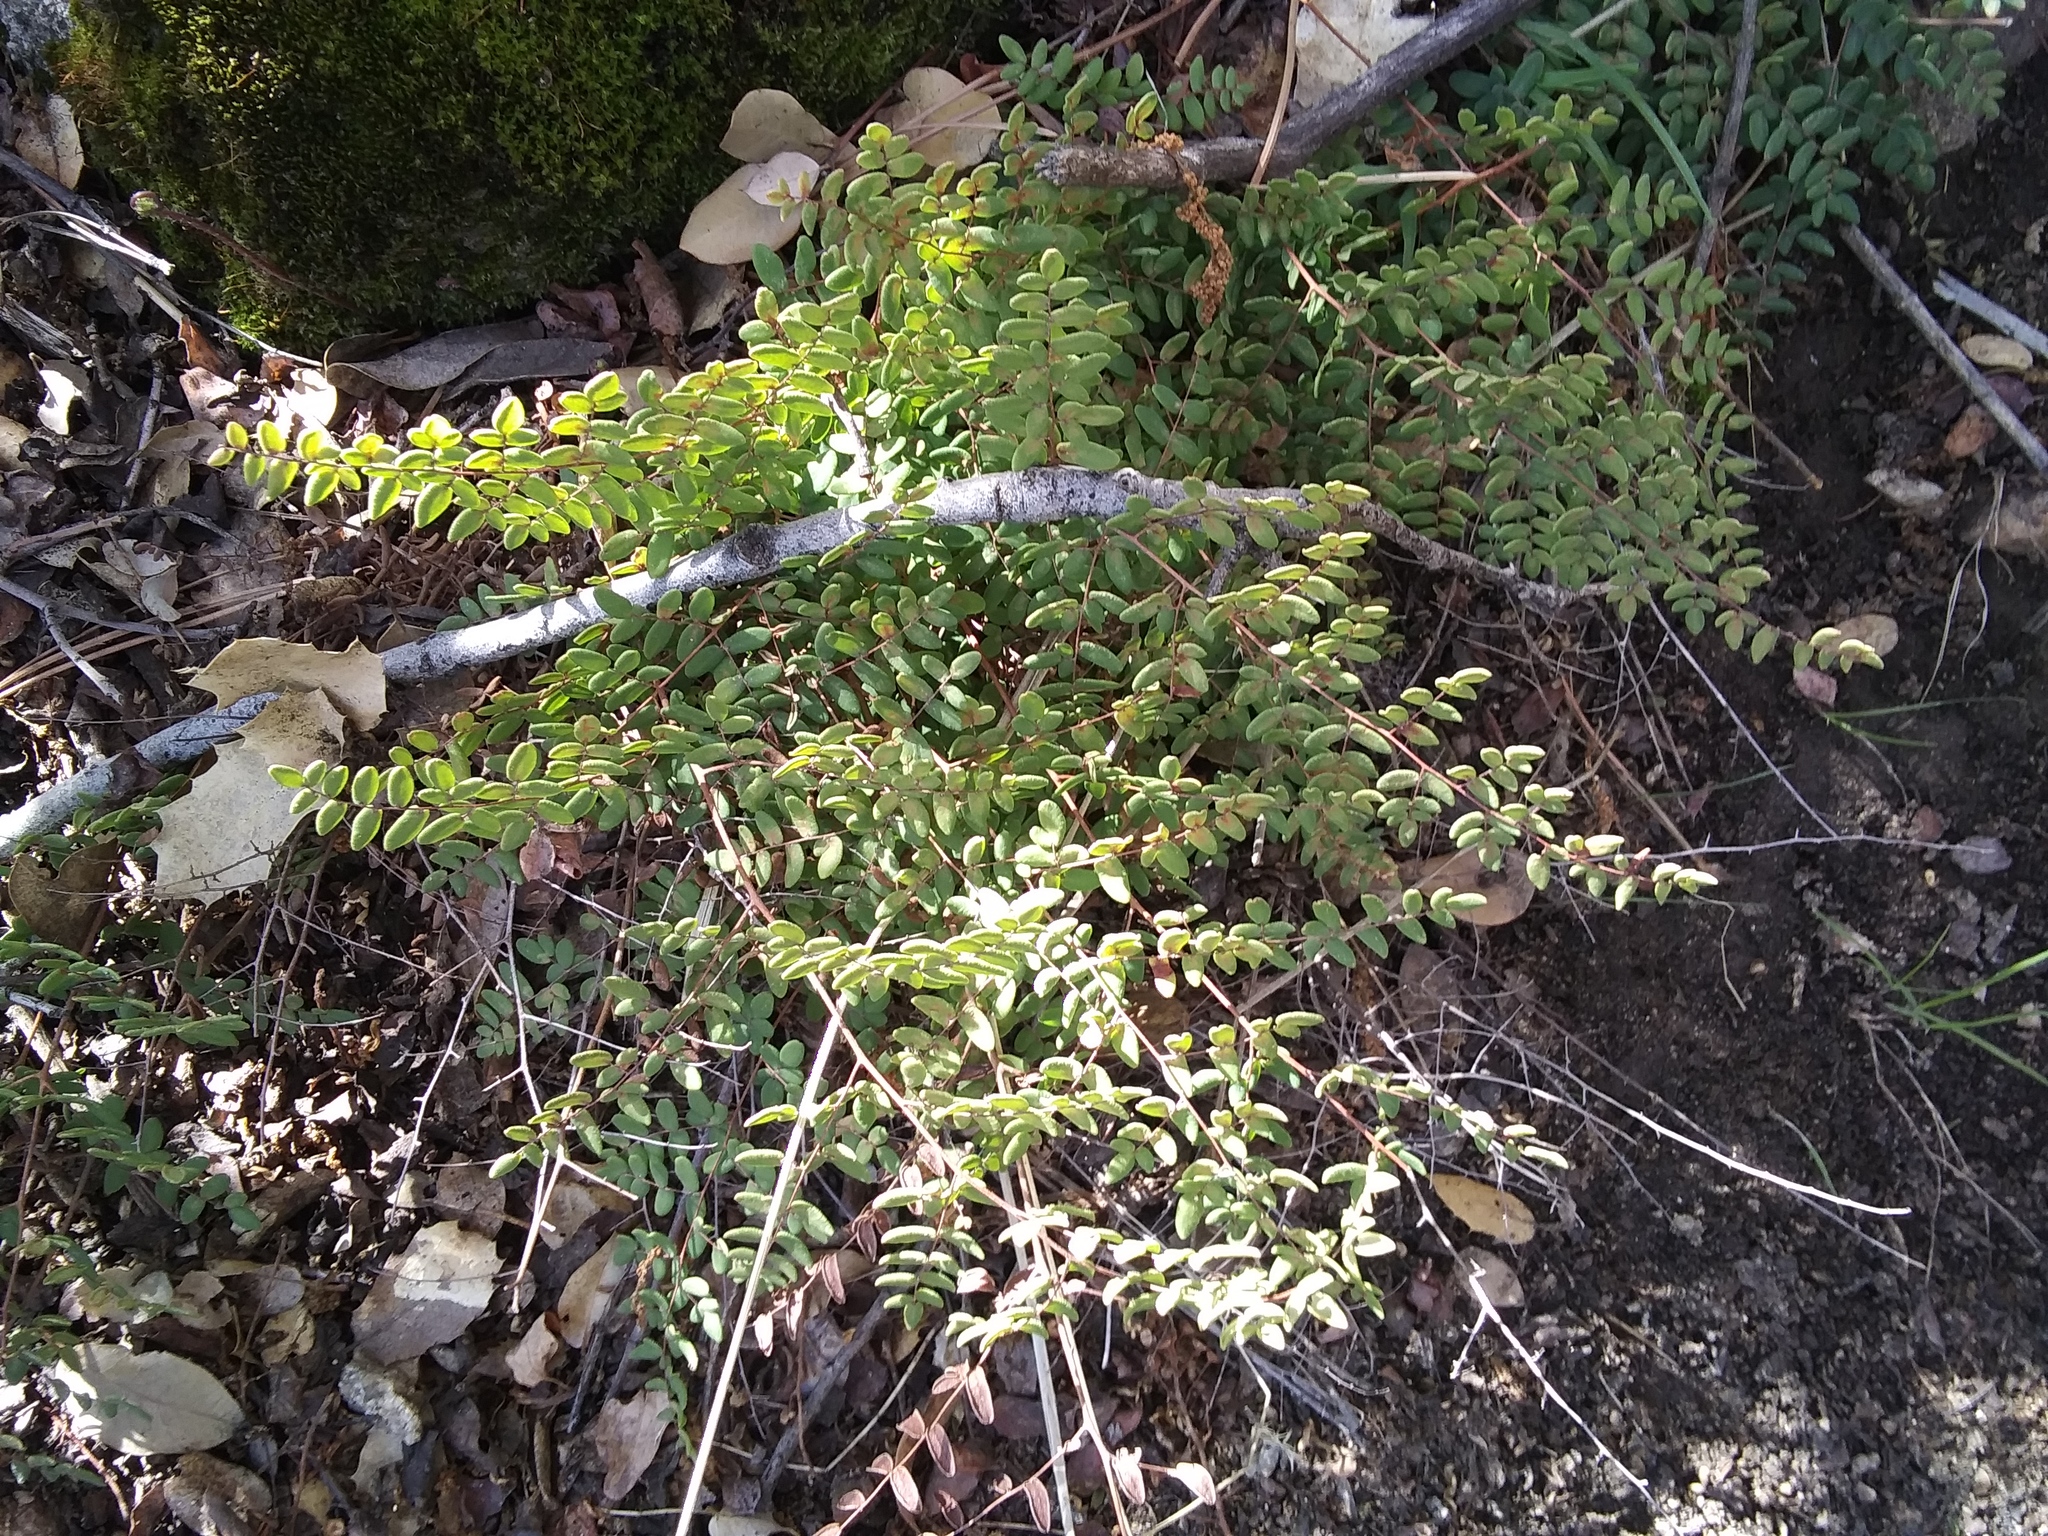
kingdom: Plantae
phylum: Tracheophyta
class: Polypodiopsida
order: Polypodiales
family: Pteridaceae
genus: Pellaea
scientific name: Pellaea andromedifolia
